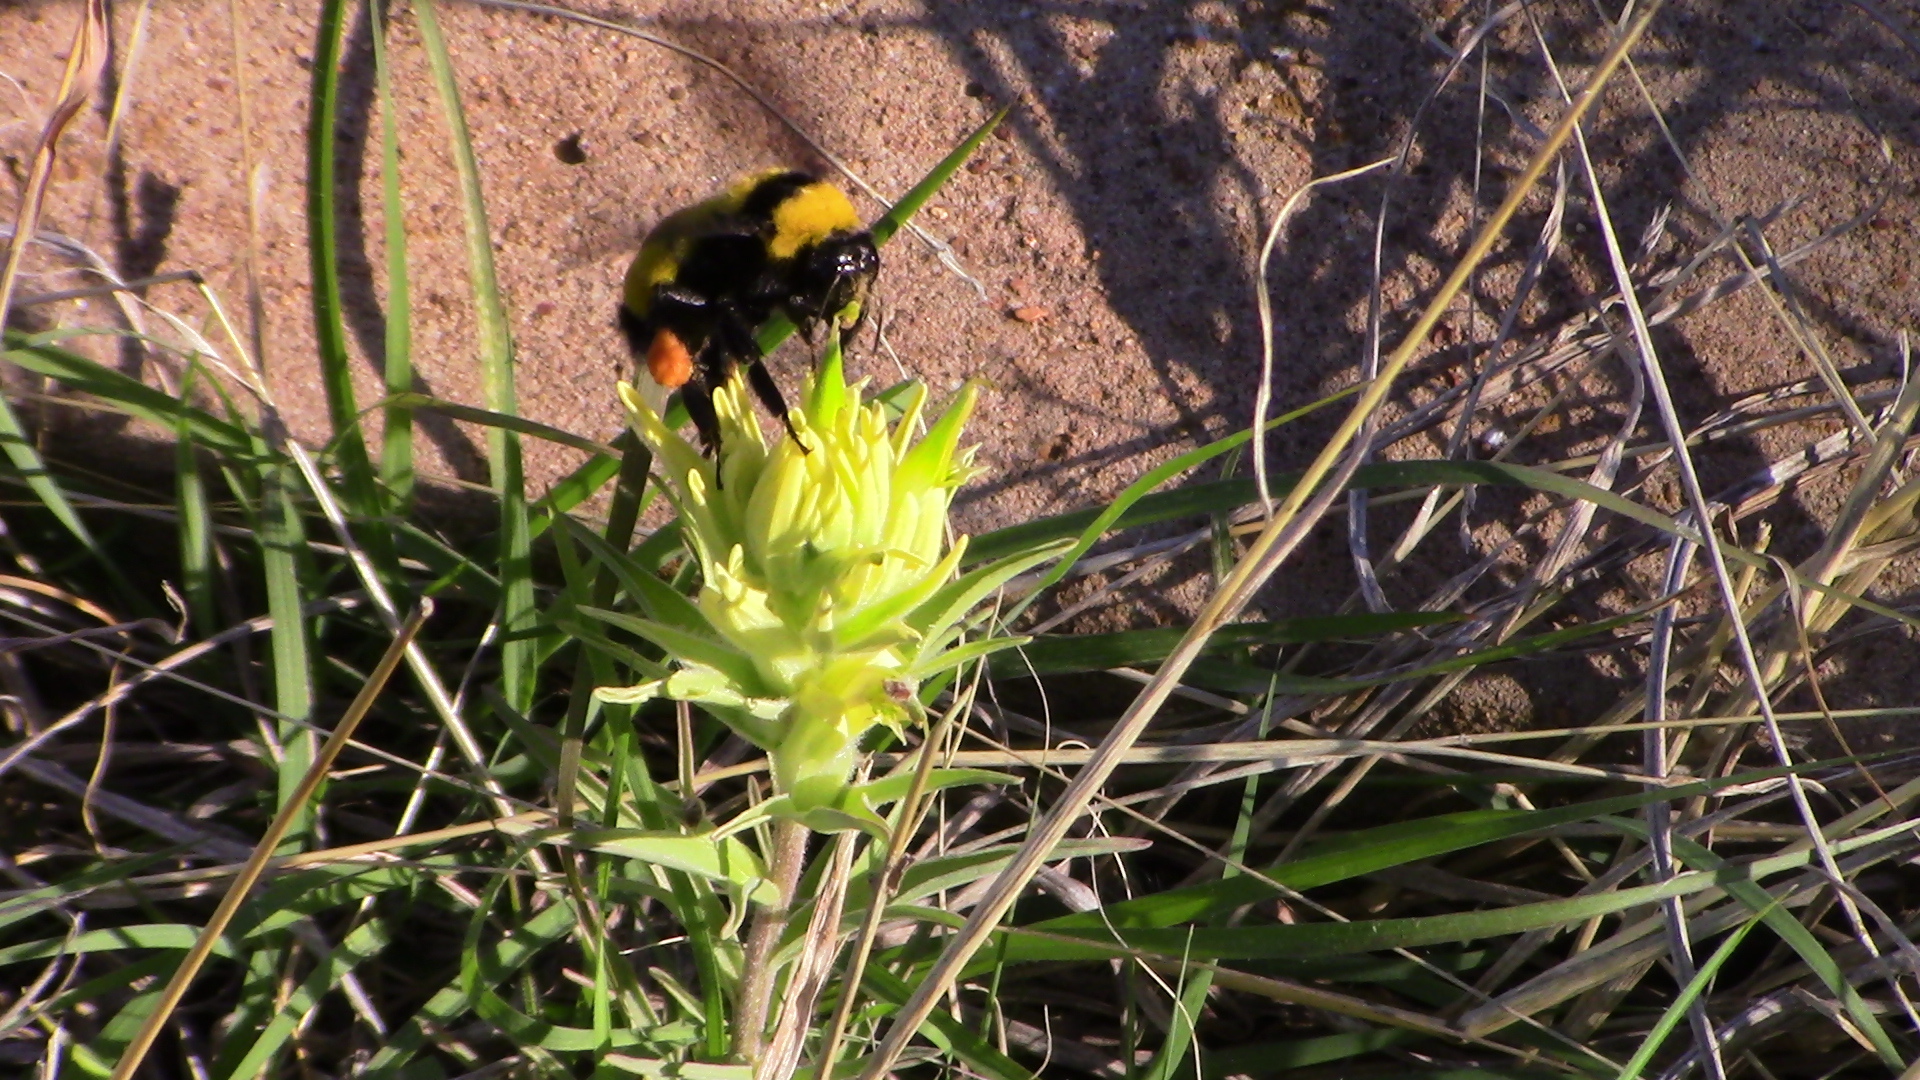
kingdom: Animalia
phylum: Arthropoda
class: Insecta
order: Hymenoptera
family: Apidae
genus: Bombus
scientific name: Bombus sonorus
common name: Sonoran bumble bee
